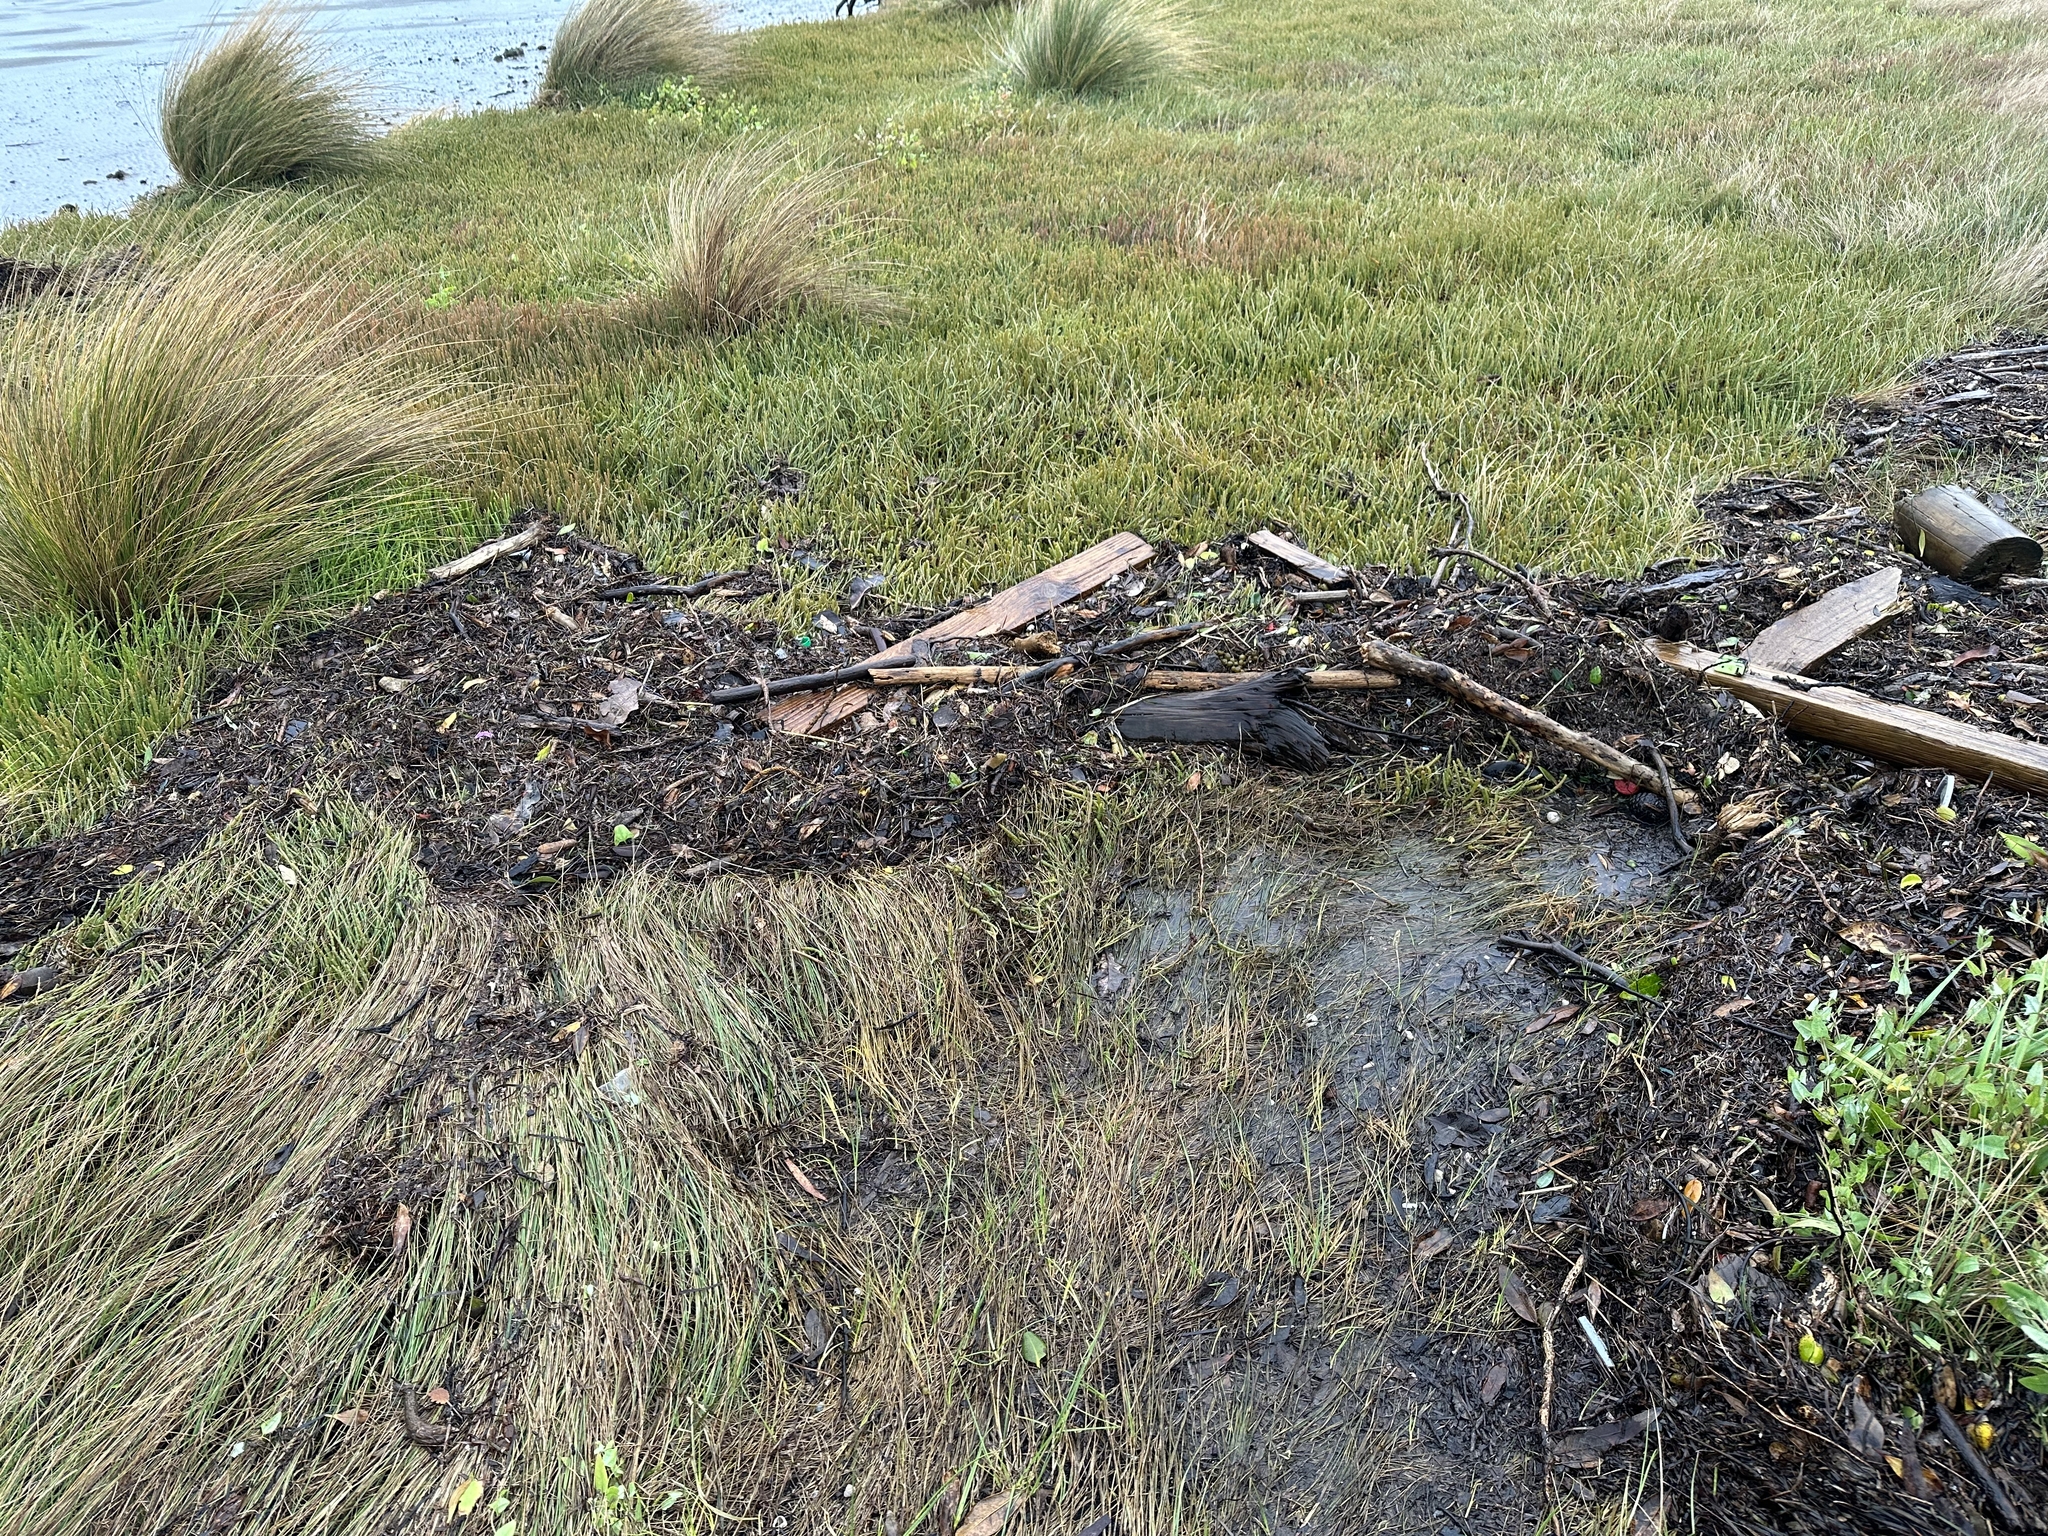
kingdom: Plantae
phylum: Tracheophyta
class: Magnoliopsida
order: Caryophyllales
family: Amaranthaceae
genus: Salicornia
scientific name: Salicornia quinqueflora
